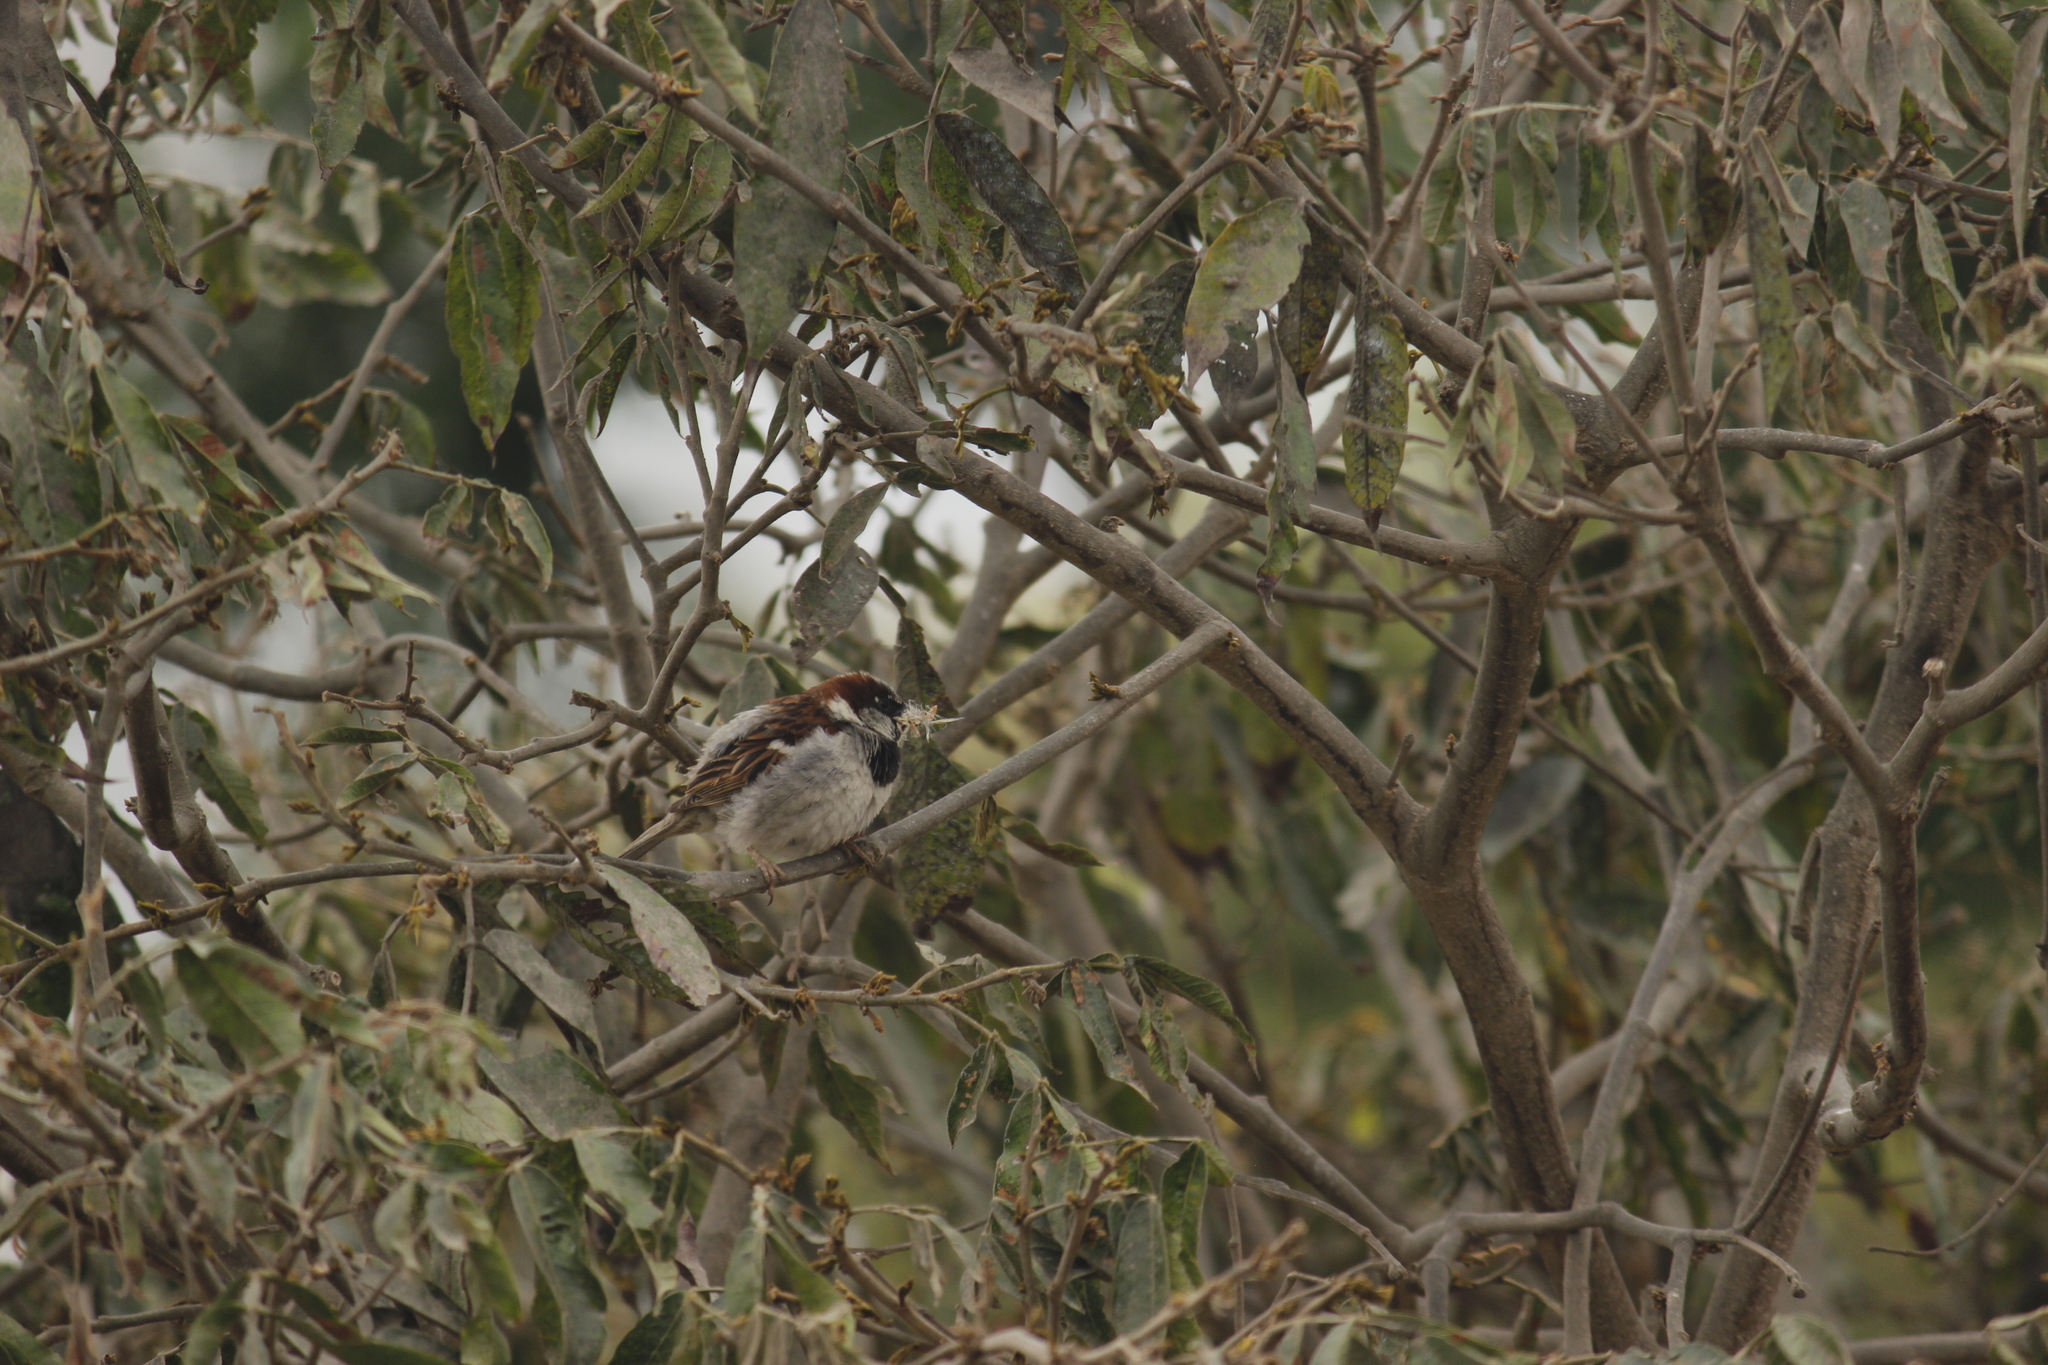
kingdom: Animalia
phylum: Chordata
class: Aves
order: Passeriformes
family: Passeridae
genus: Passer
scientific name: Passer domesticus
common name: House sparrow
